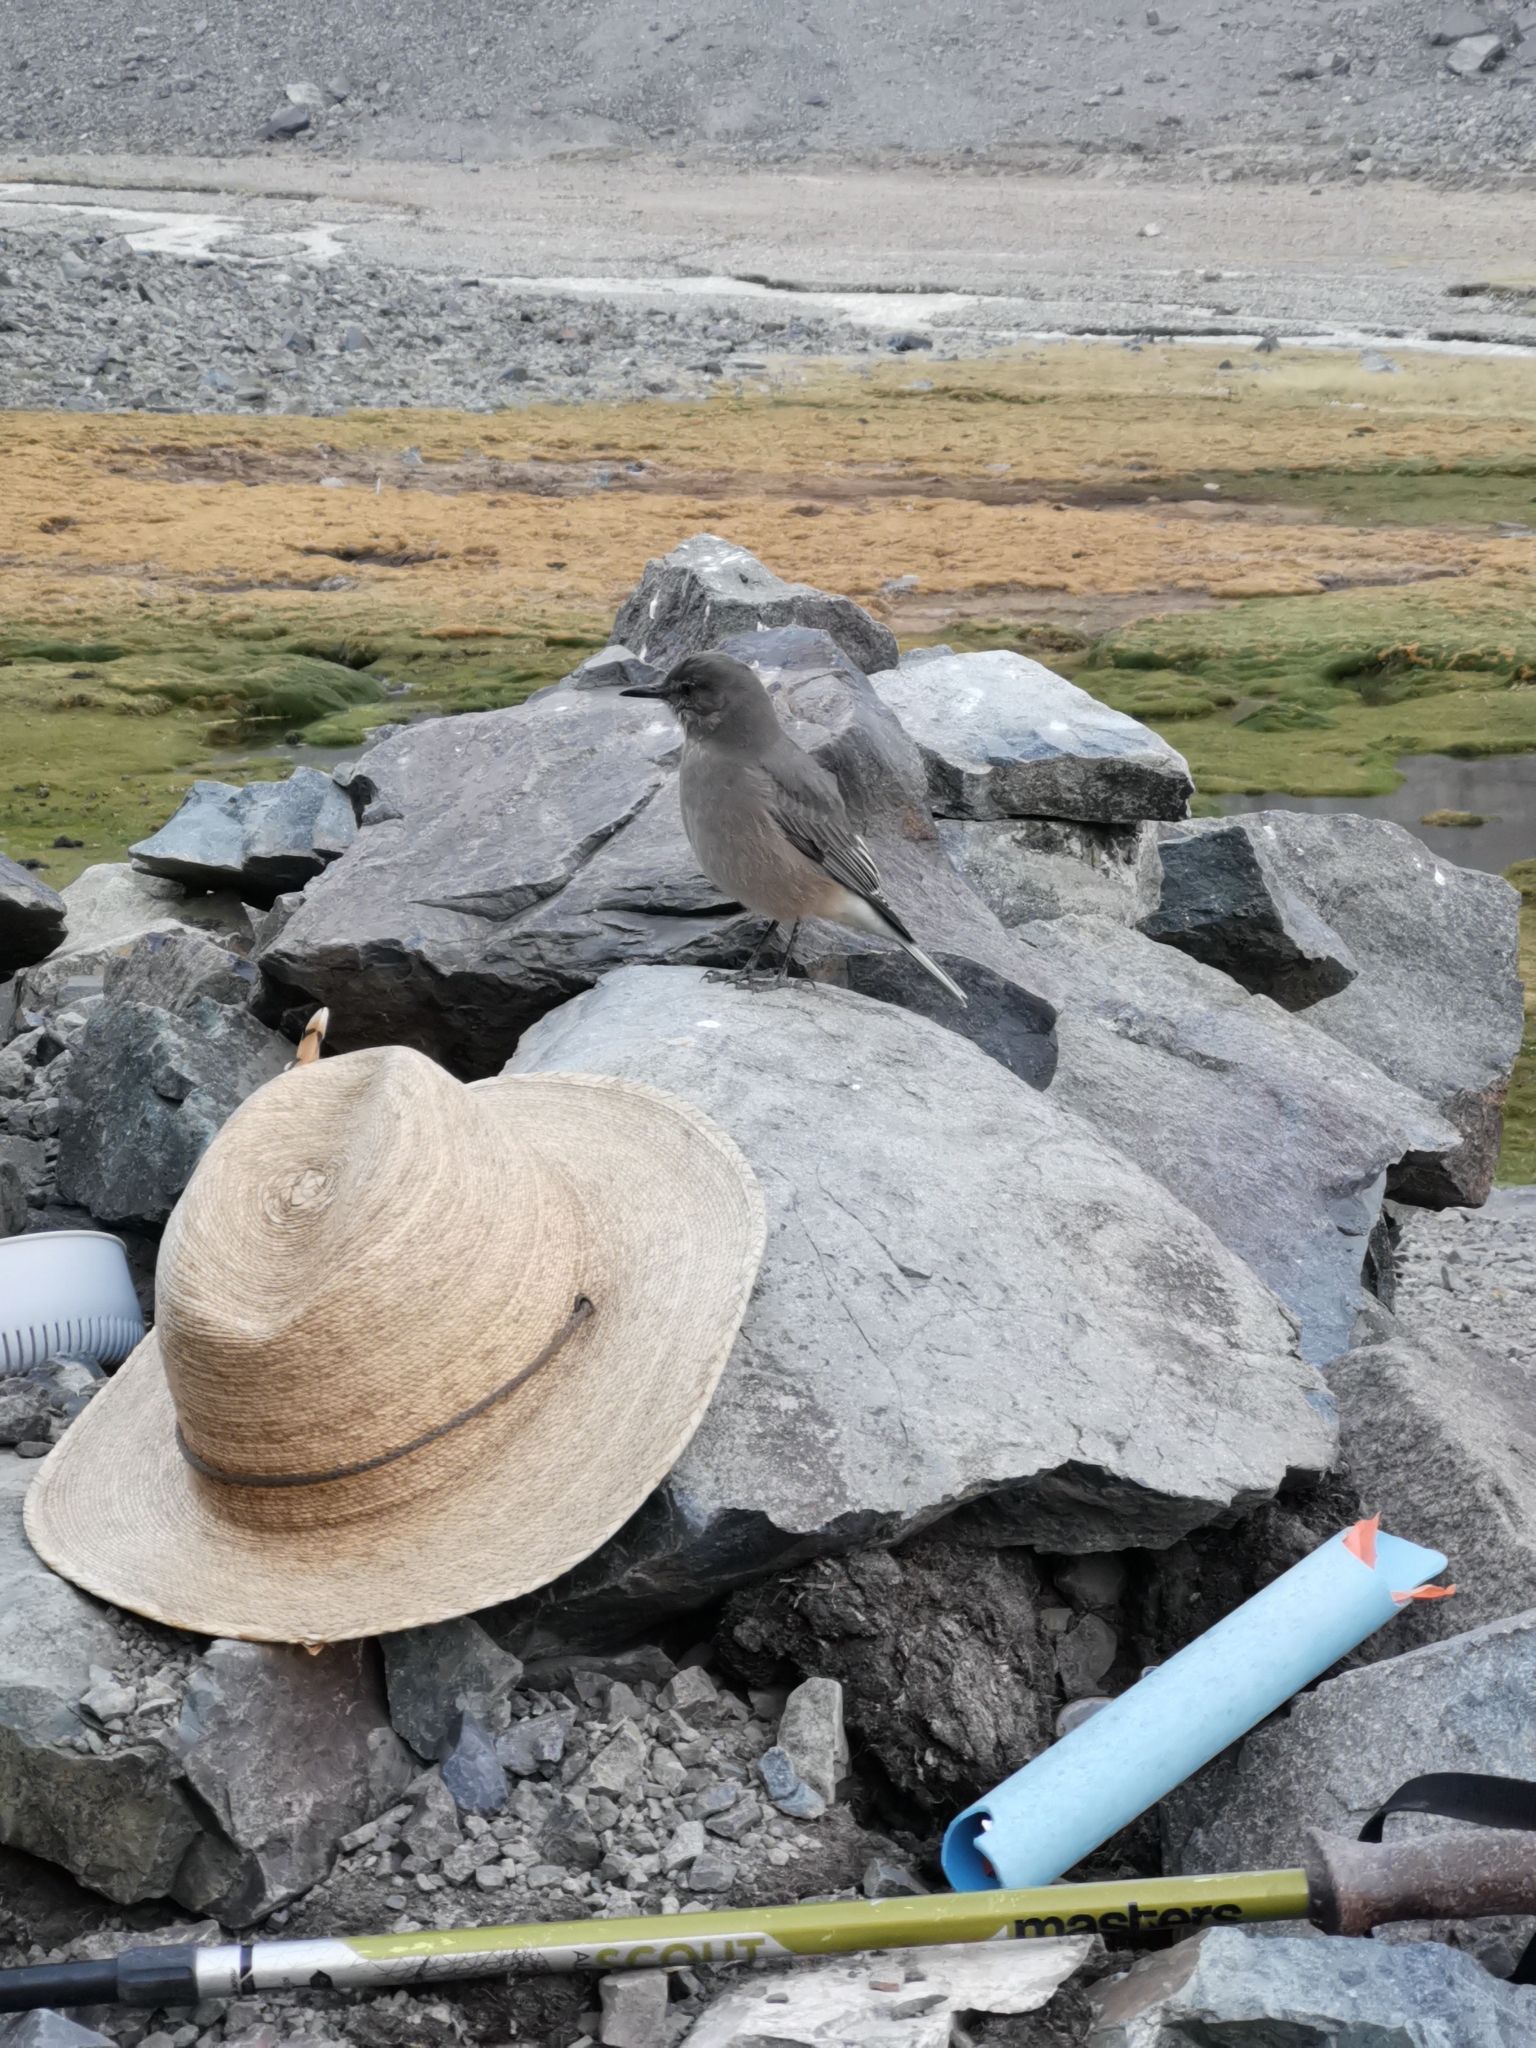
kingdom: Animalia
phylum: Chordata
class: Aves
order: Passeriformes
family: Tyrannidae
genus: Agriornis
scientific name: Agriornis montanus
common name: Black-billed shrike-tyrant
